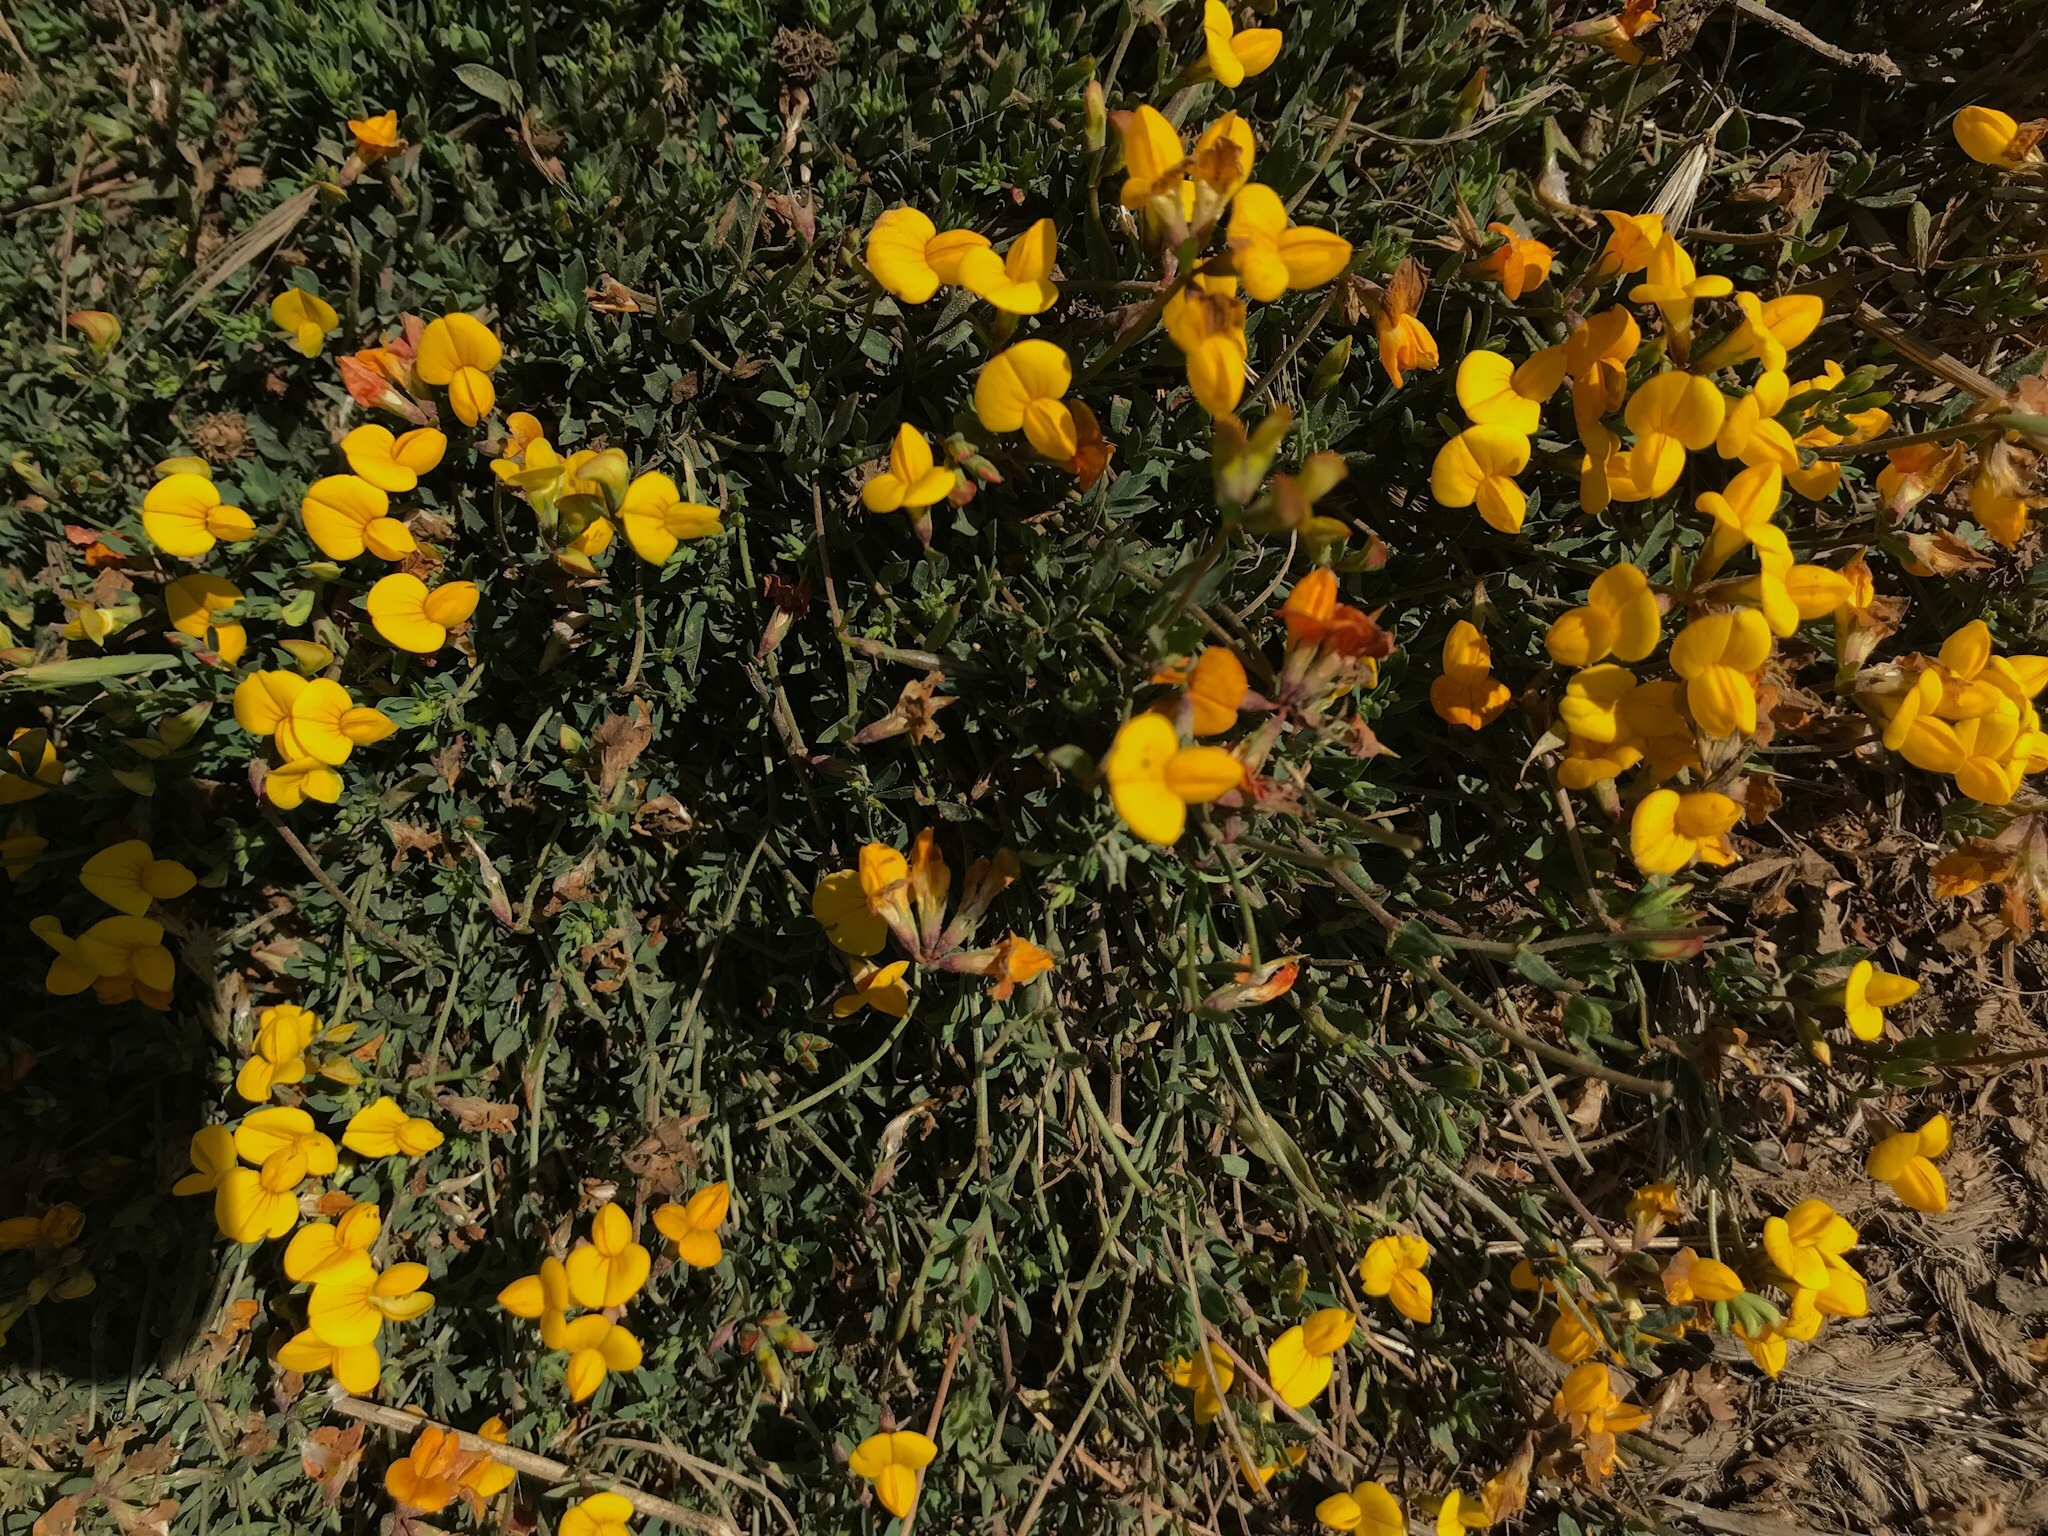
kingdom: Plantae
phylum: Tracheophyta
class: Magnoliopsida
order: Fabales
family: Fabaceae
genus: Lotus
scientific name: Lotus corniculatus
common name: Common bird's-foot-trefoil
